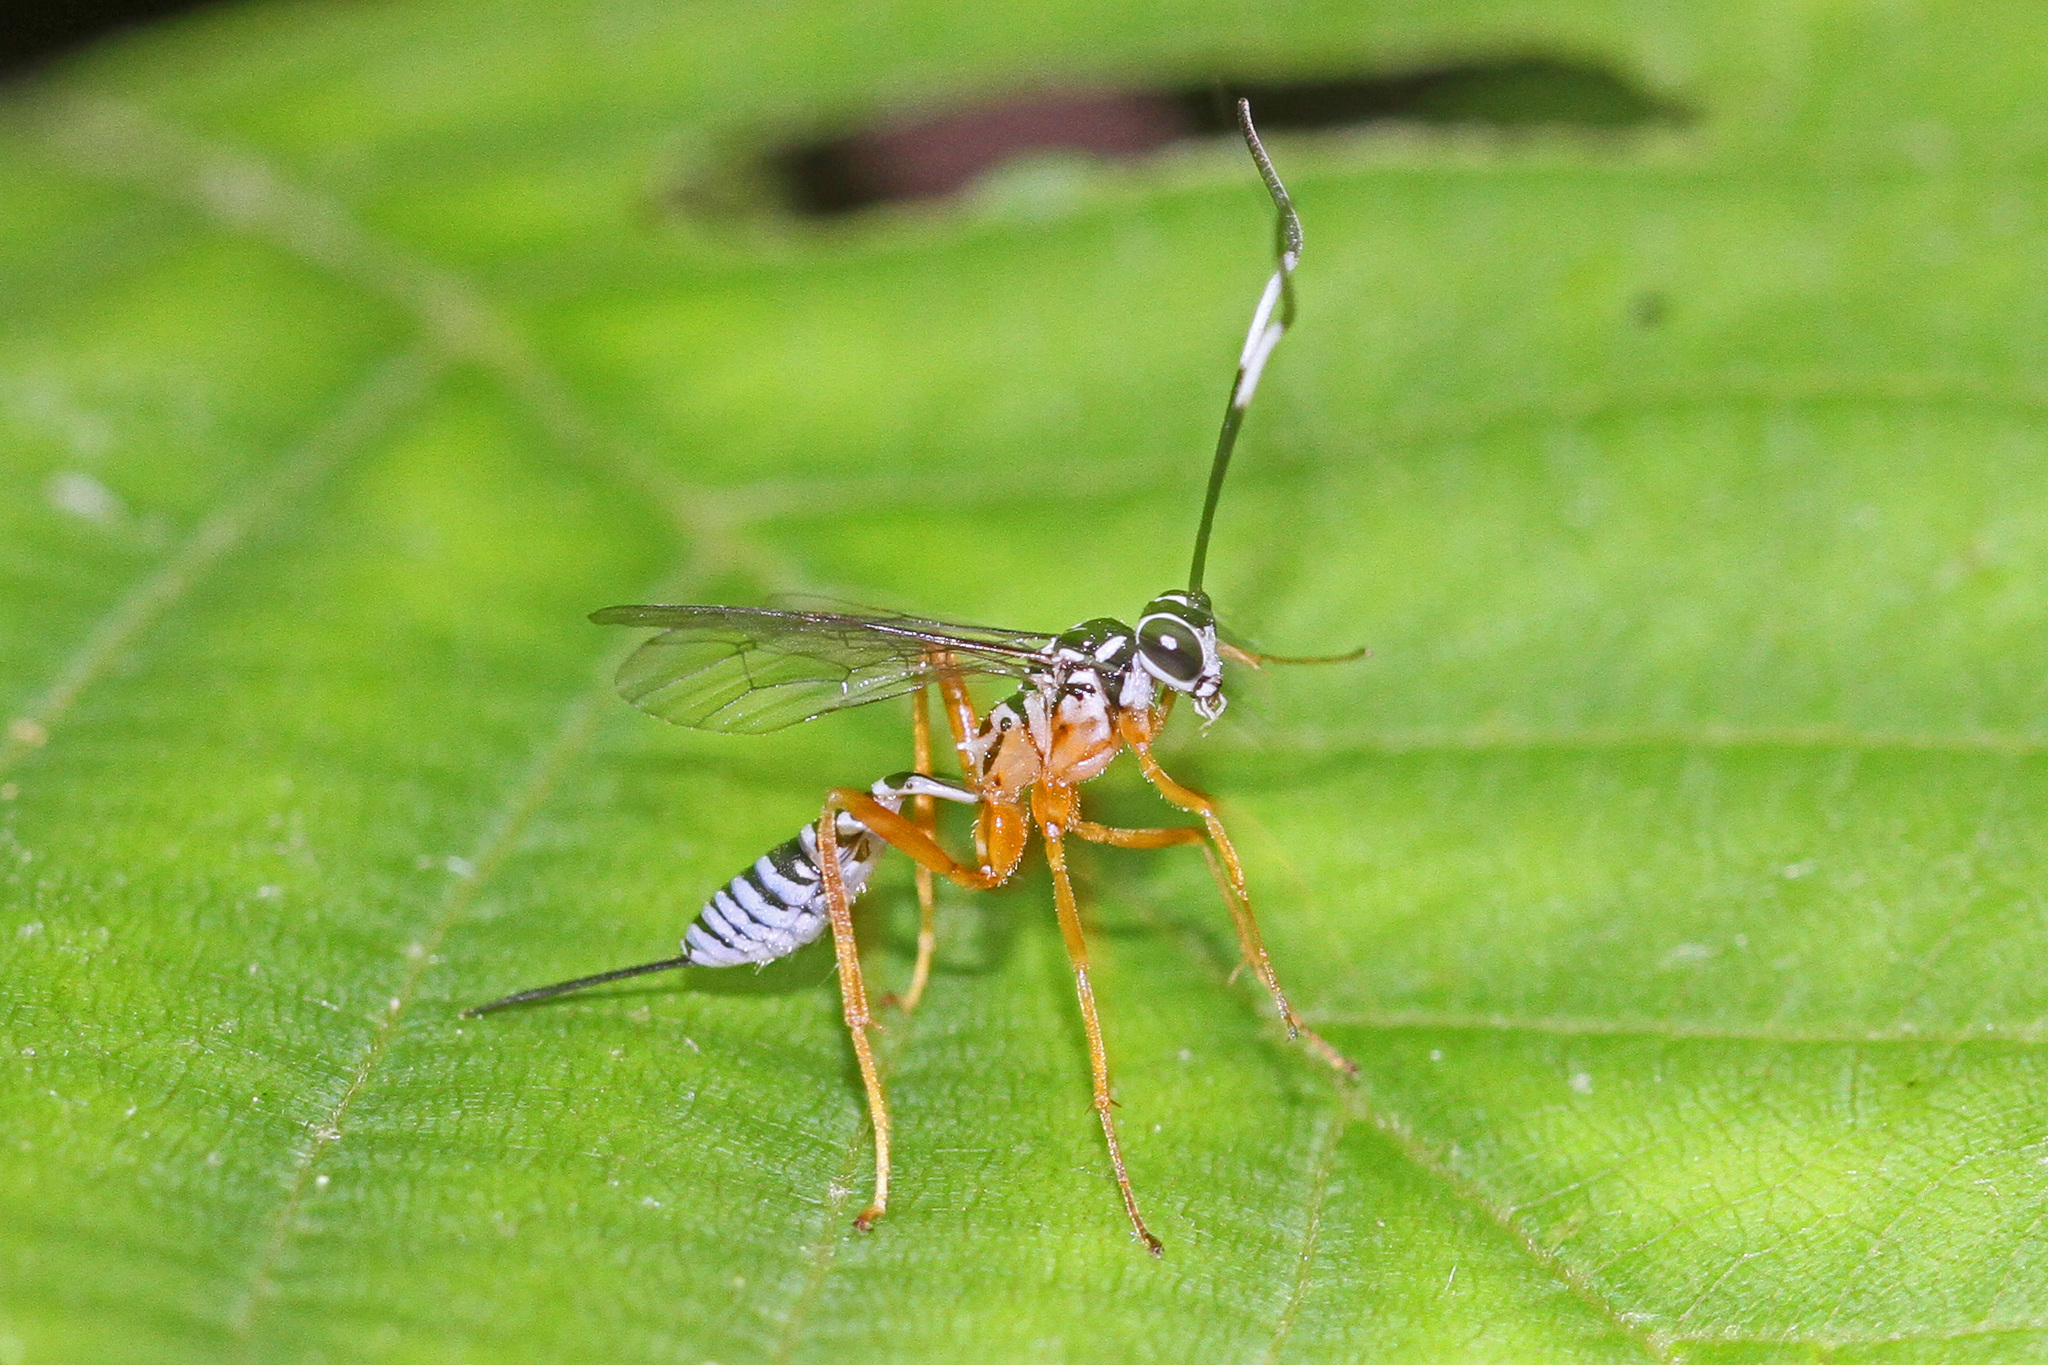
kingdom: Animalia
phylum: Arthropoda
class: Insecta
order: Hymenoptera
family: Ichneumonidae
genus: Polycyrtus
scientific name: Polycyrtus neglectus
